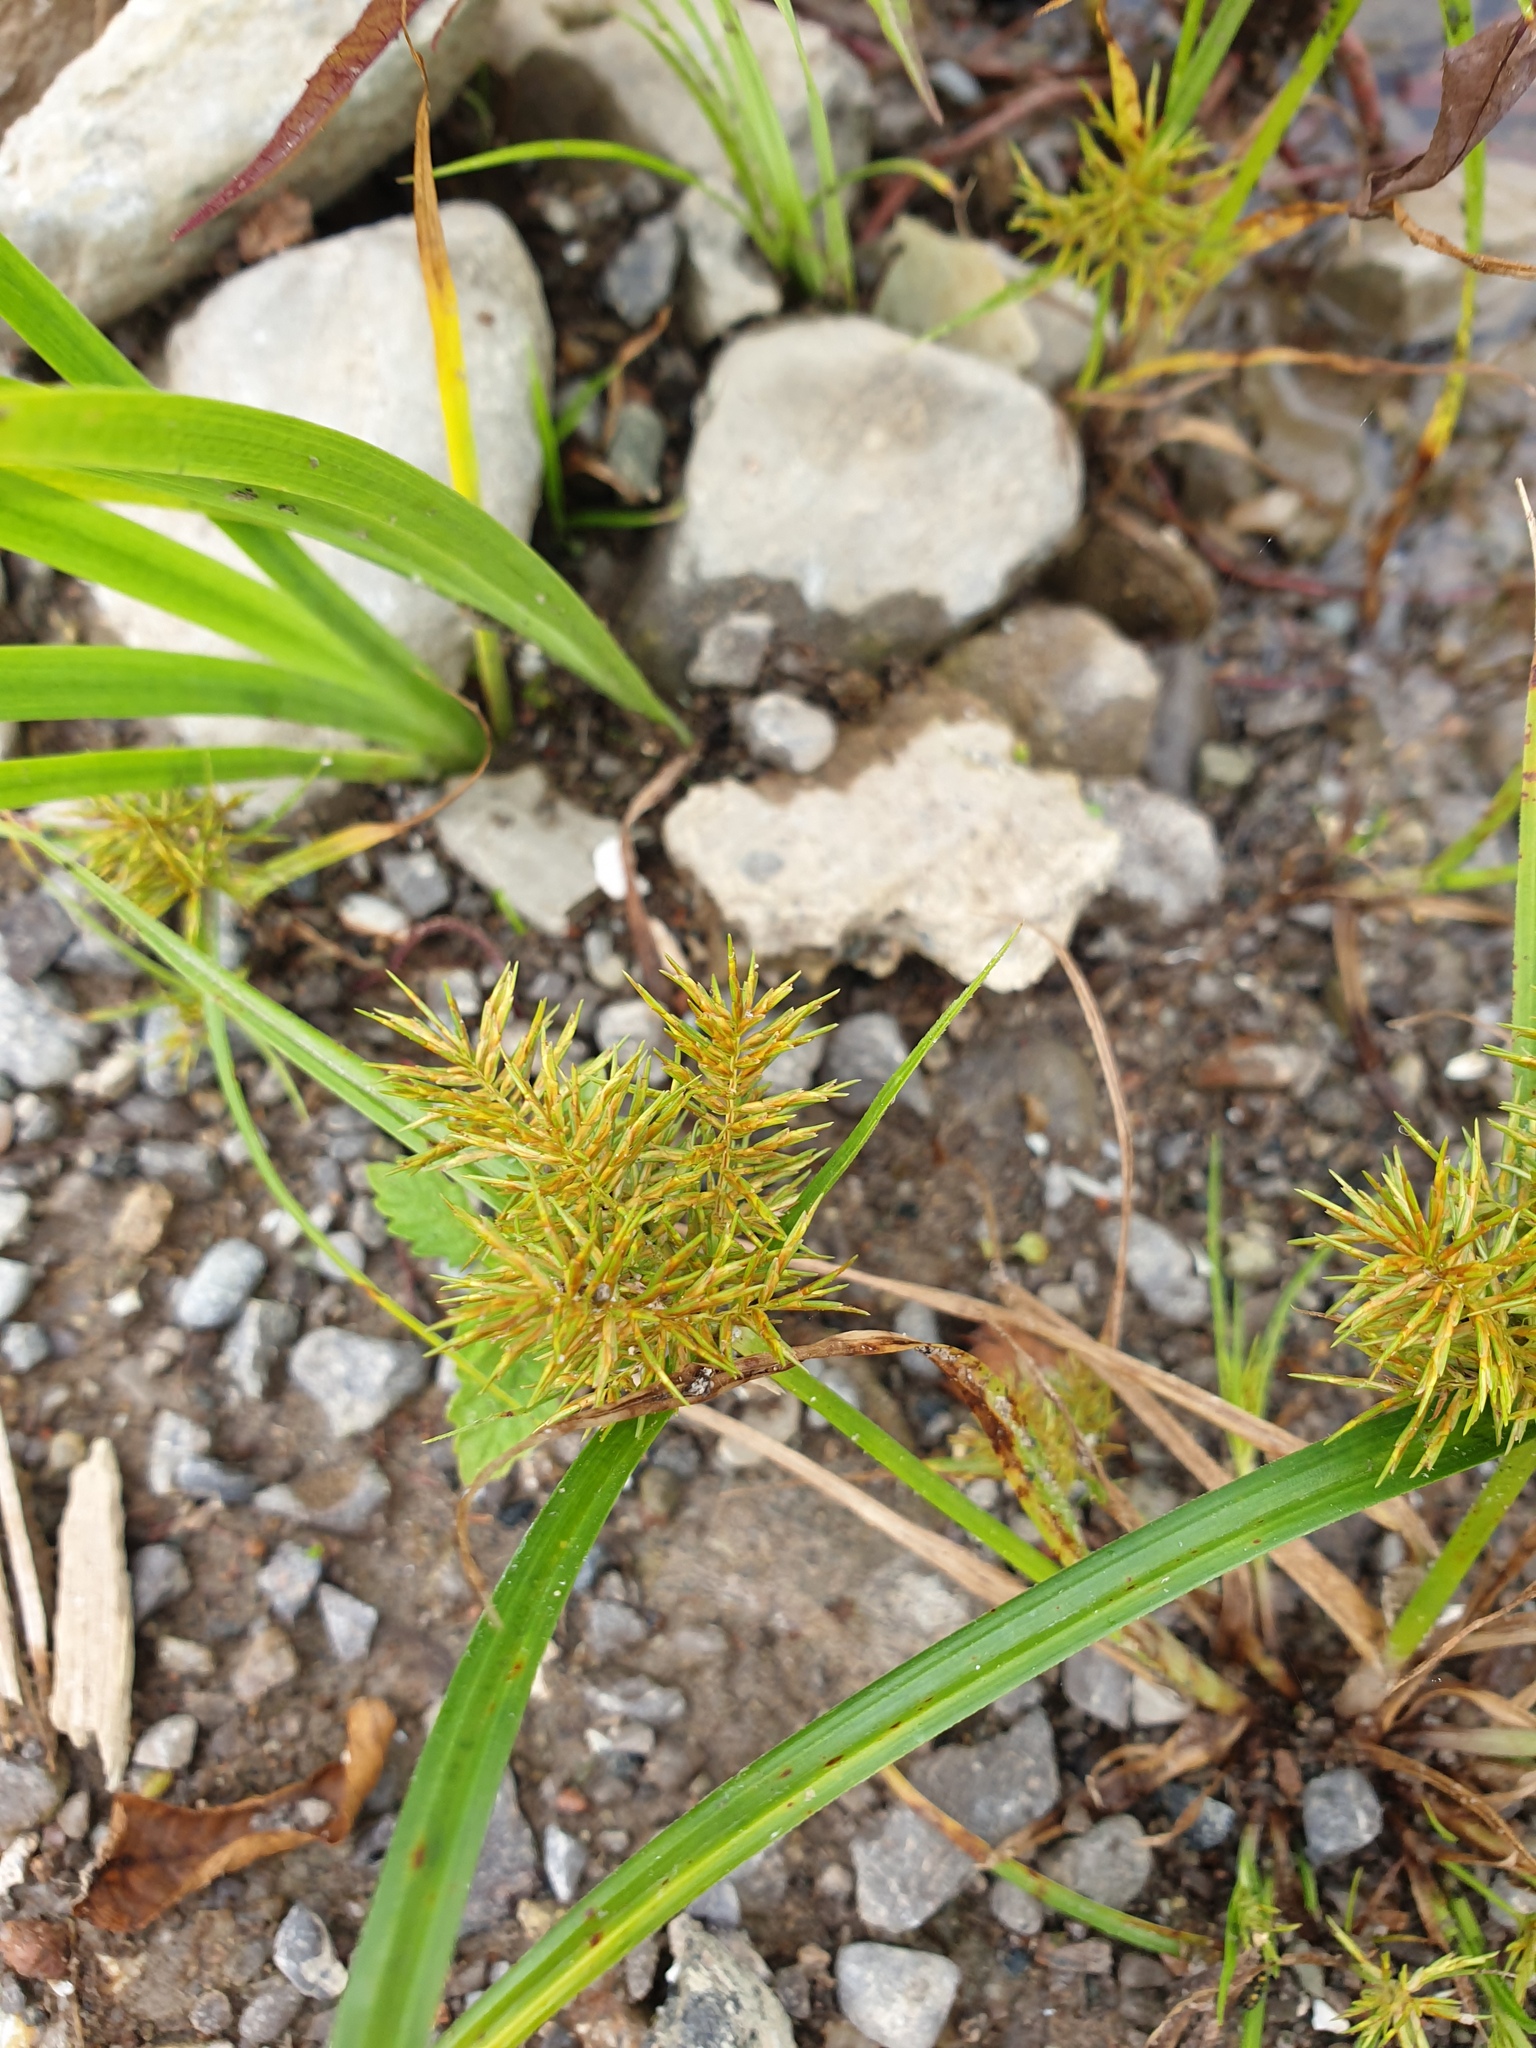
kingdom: Plantae
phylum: Tracheophyta
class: Liliopsida
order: Poales
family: Cyperaceae
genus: Cyperus
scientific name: Cyperus odoratus
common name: Fragrant flatsedge
